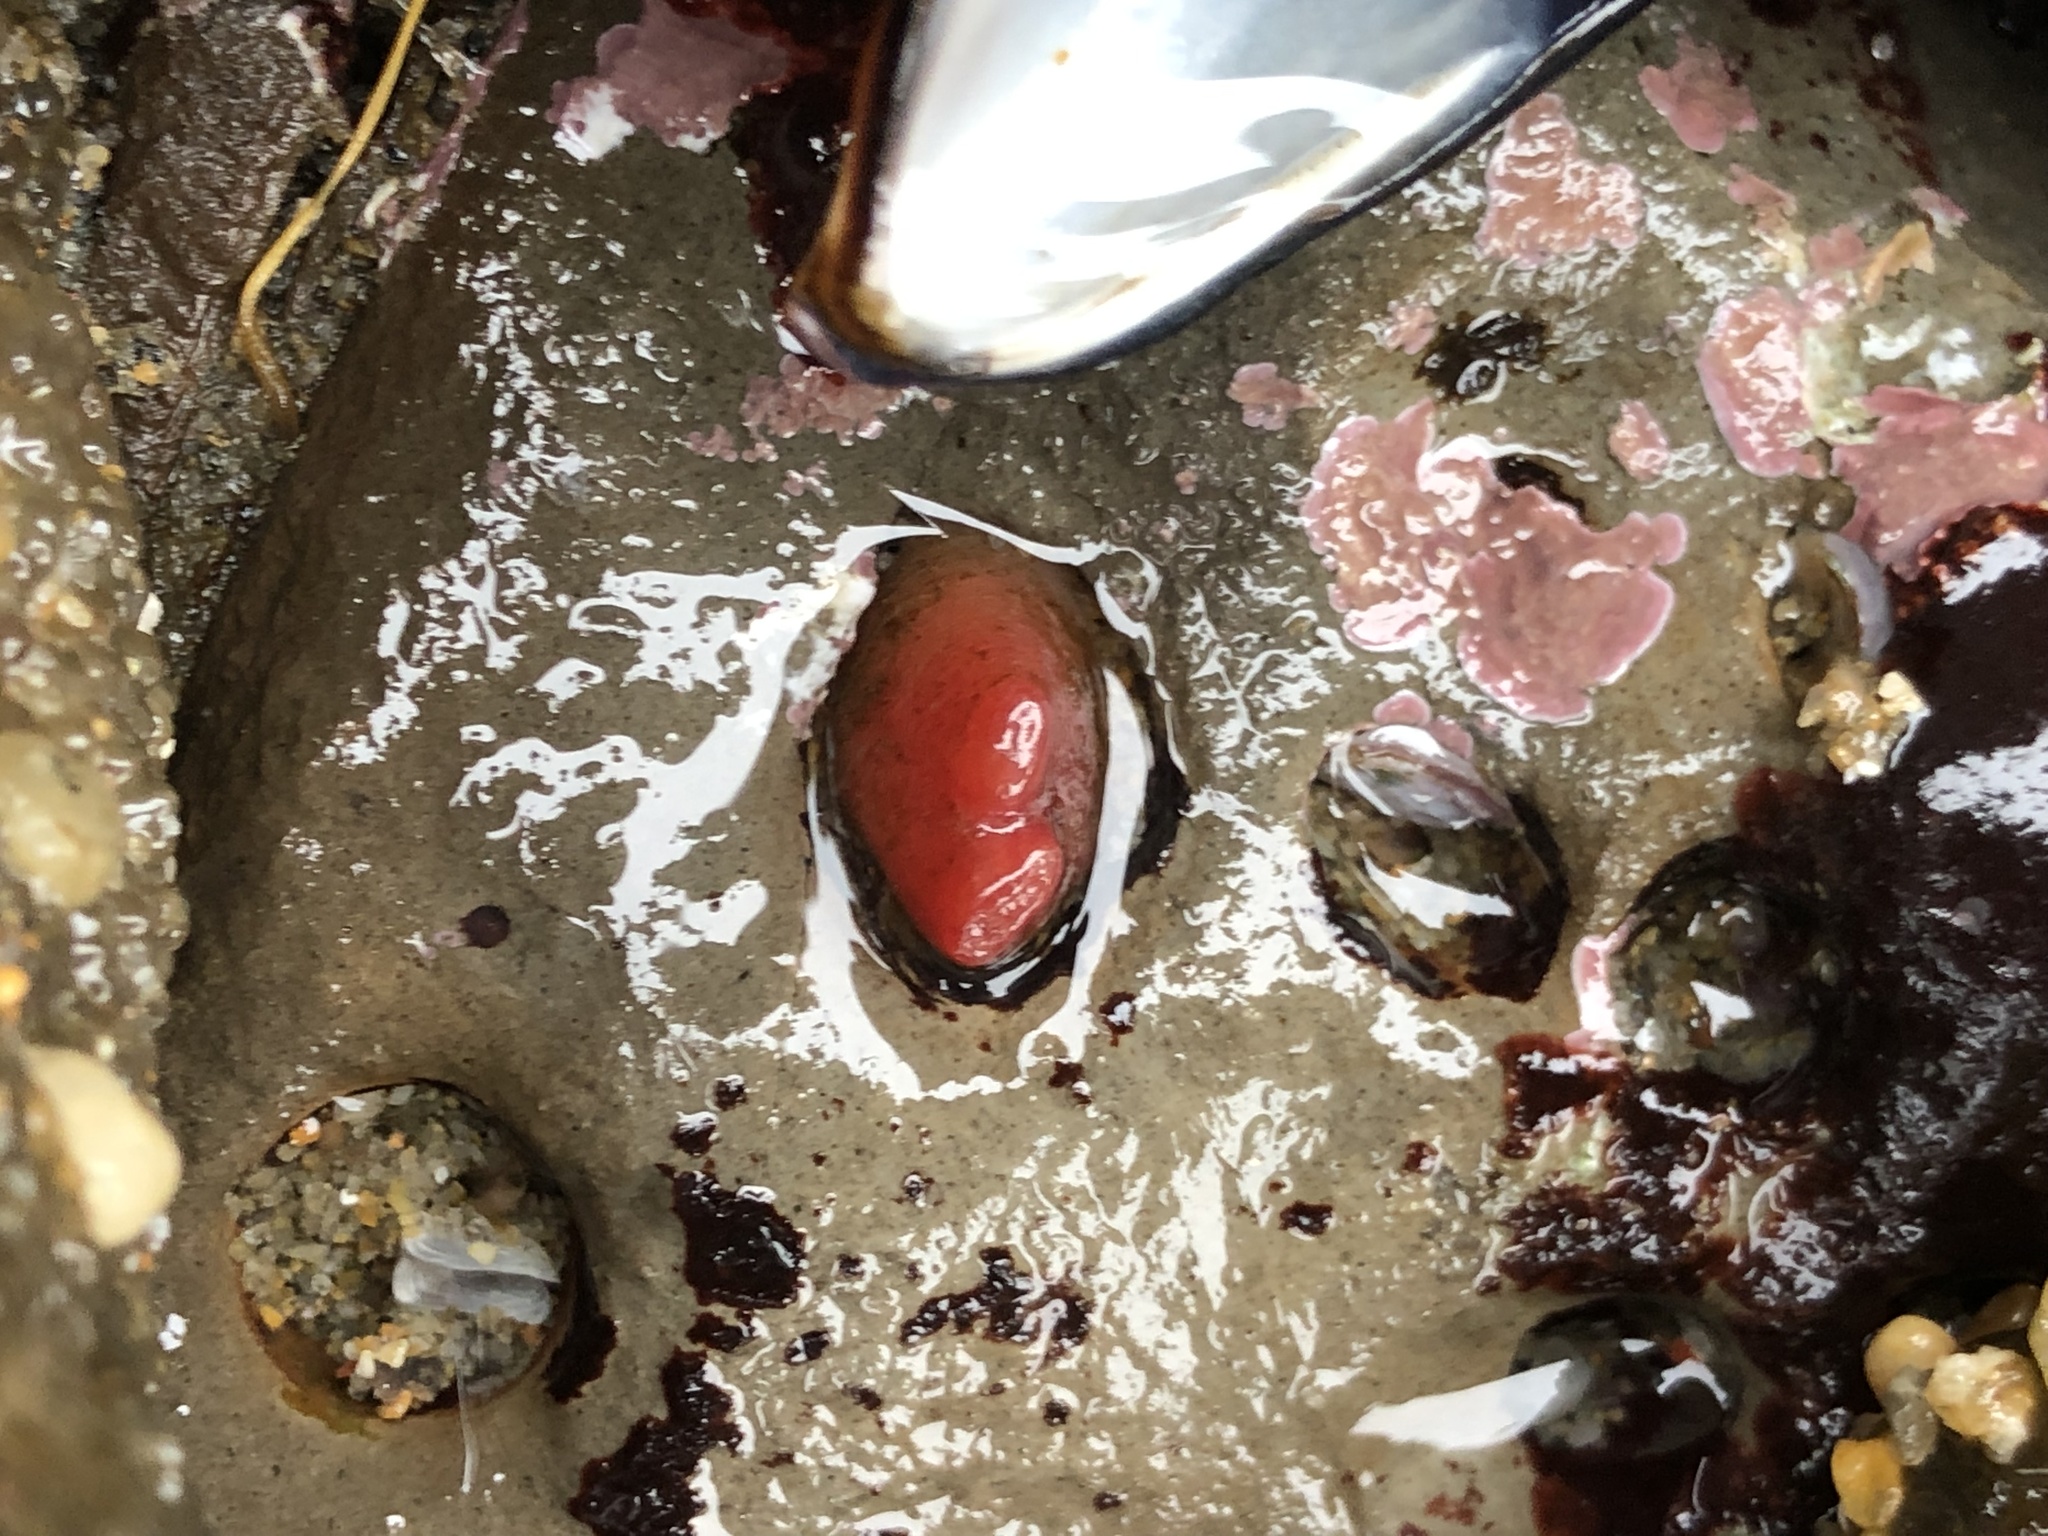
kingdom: Animalia
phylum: Mollusca
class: Bivalvia
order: Adapedonta
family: Hiatellidae
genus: Hiatella
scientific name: Hiatella arctica
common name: Arctic hiatella
